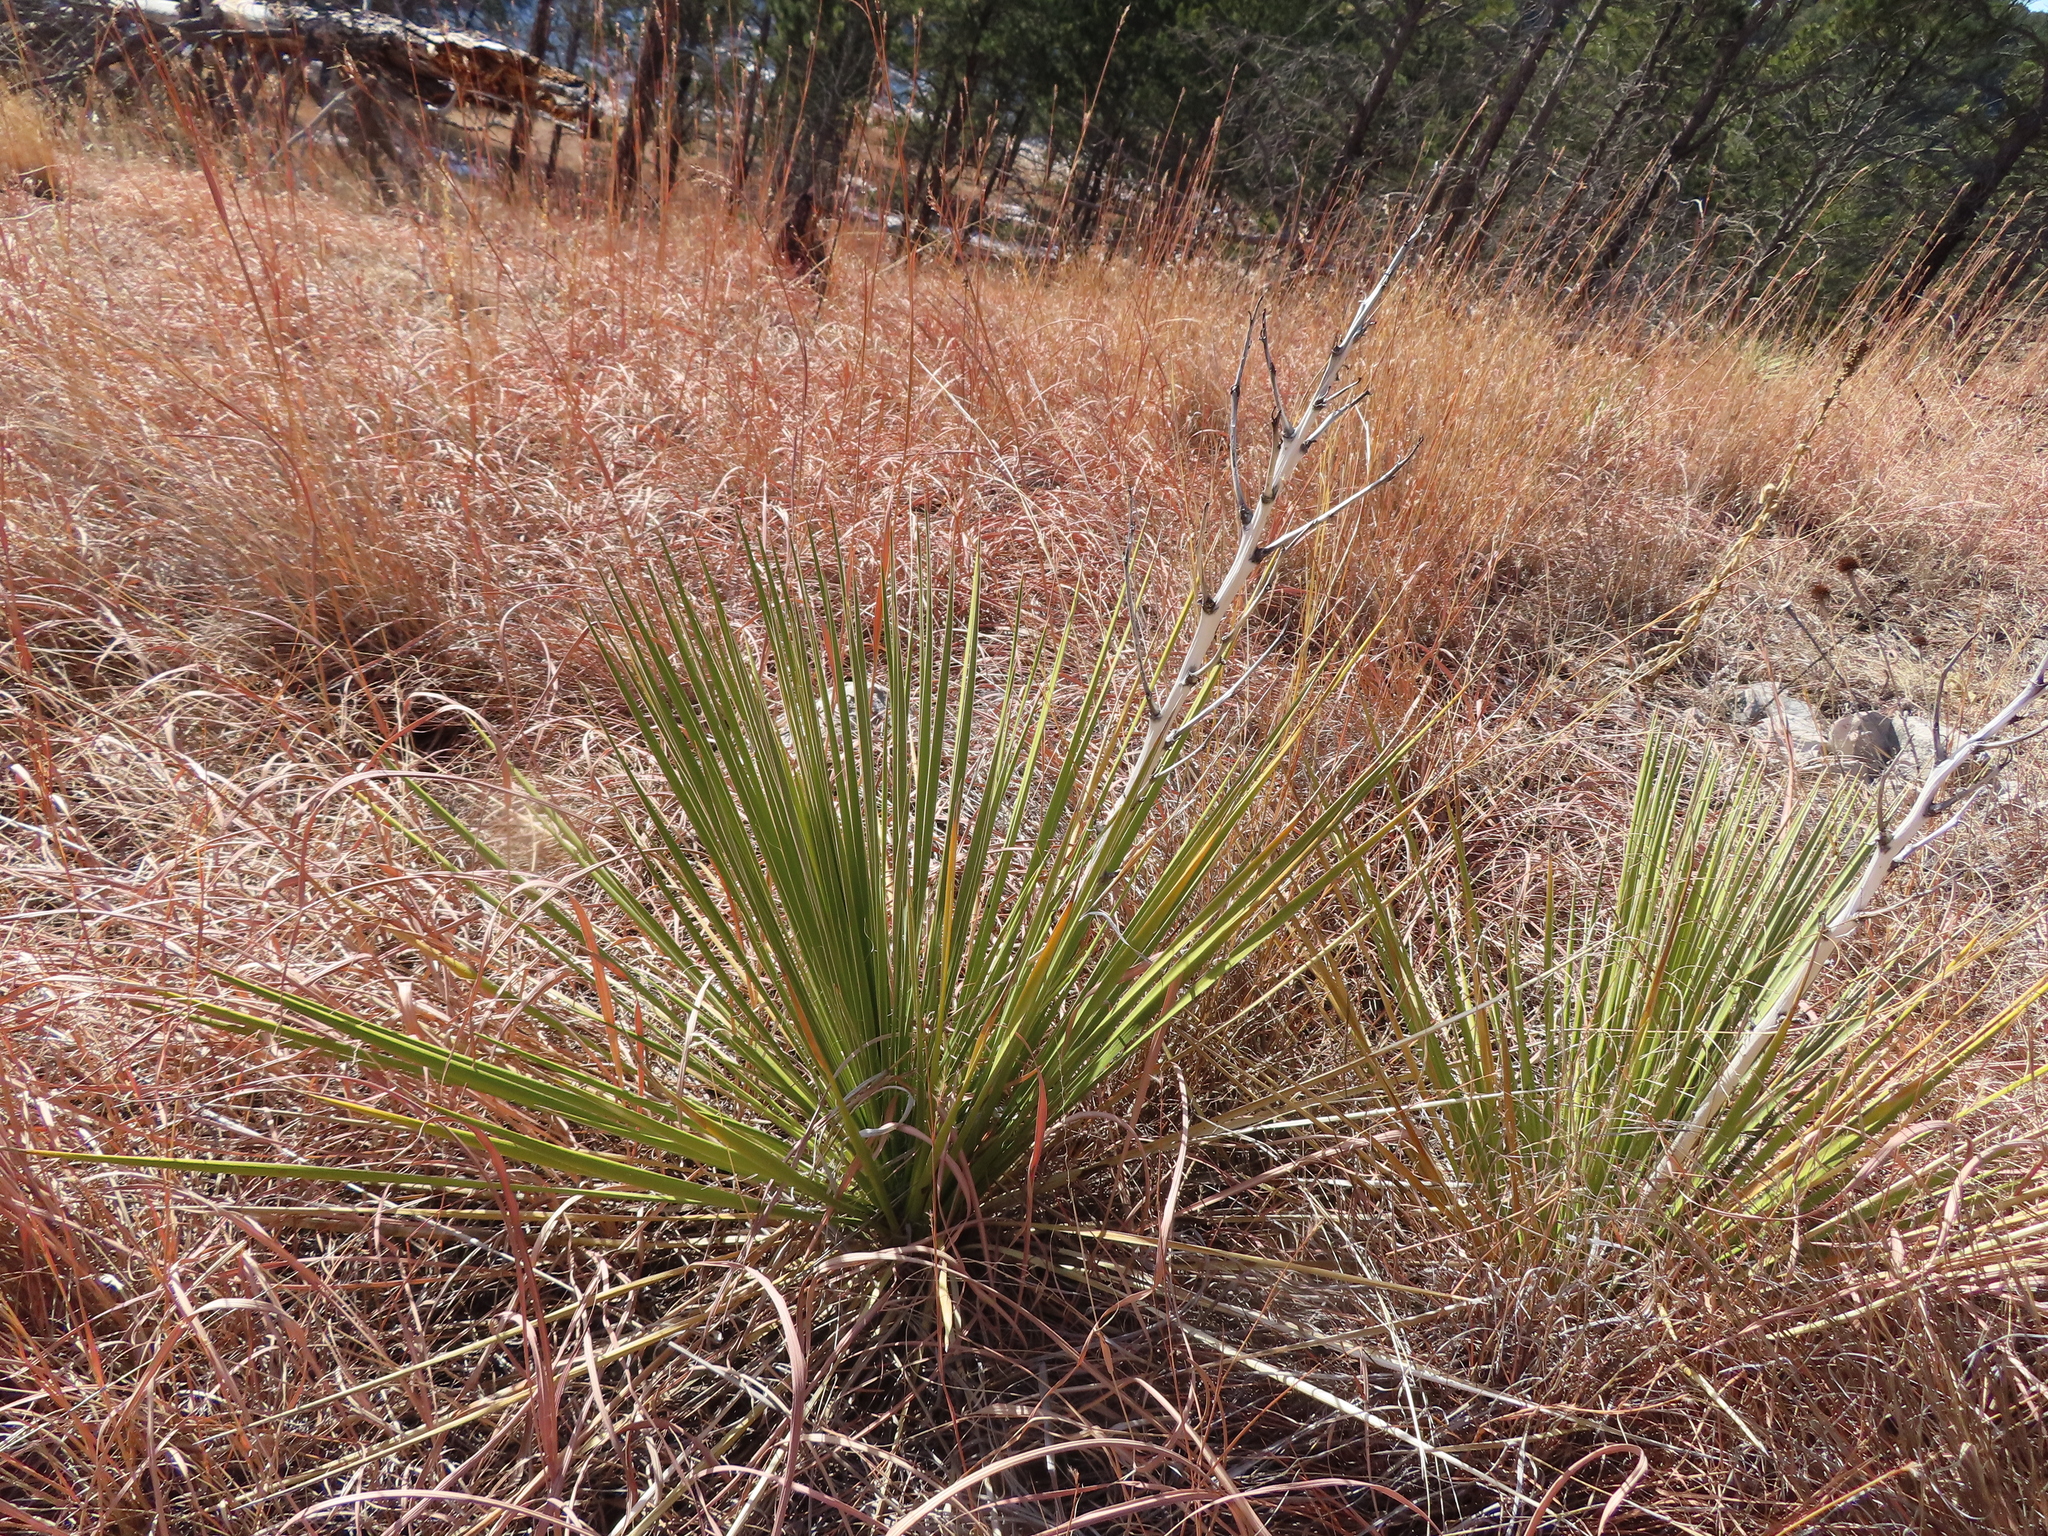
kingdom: Plantae
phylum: Tracheophyta
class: Liliopsida
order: Asparagales
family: Asparagaceae
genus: Yucca
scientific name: Yucca glauca
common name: Great plains yucca
